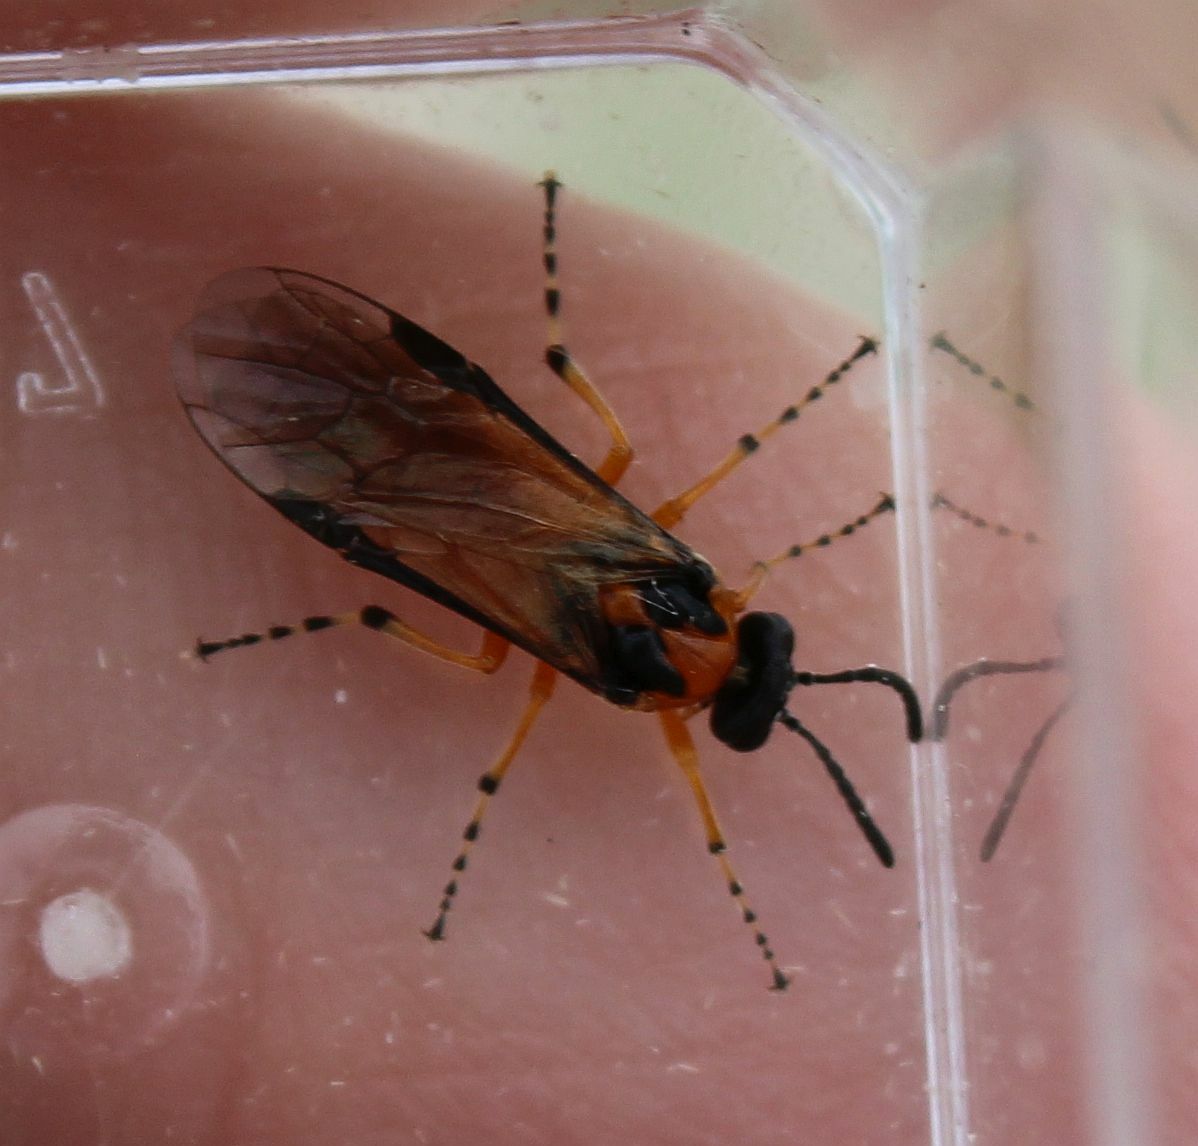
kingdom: Animalia
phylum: Arthropoda
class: Insecta
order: Hymenoptera
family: Tenthredinidae
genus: Athalia
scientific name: Athalia rosae
